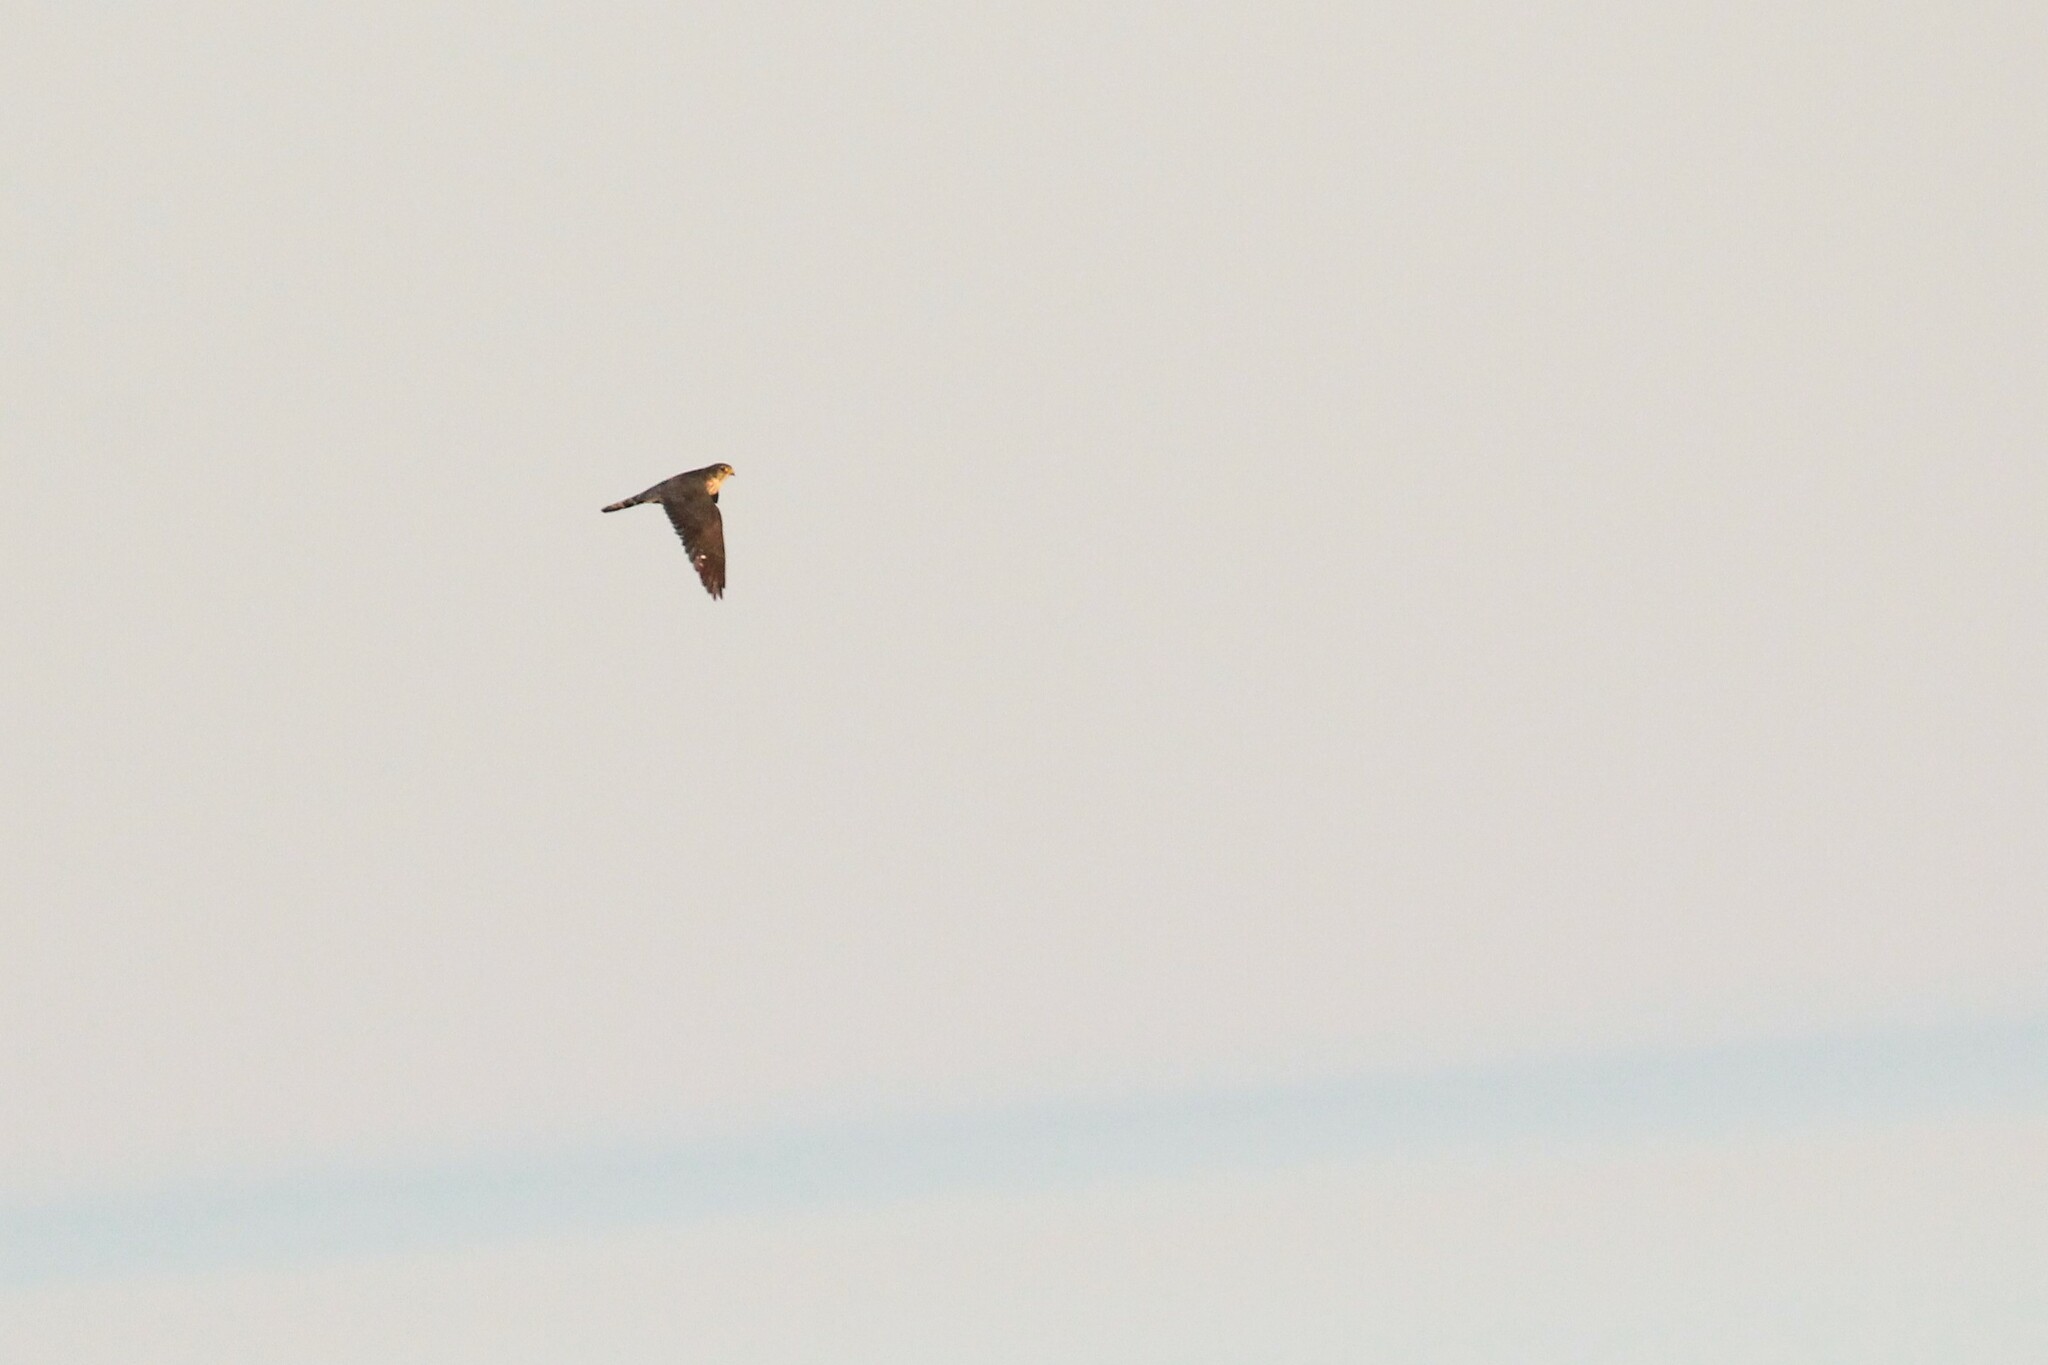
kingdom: Animalia
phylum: Chordata
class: Aves
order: Falconiformes
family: Falconidae
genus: Falco
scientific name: Falco columbarius
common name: Merlin
